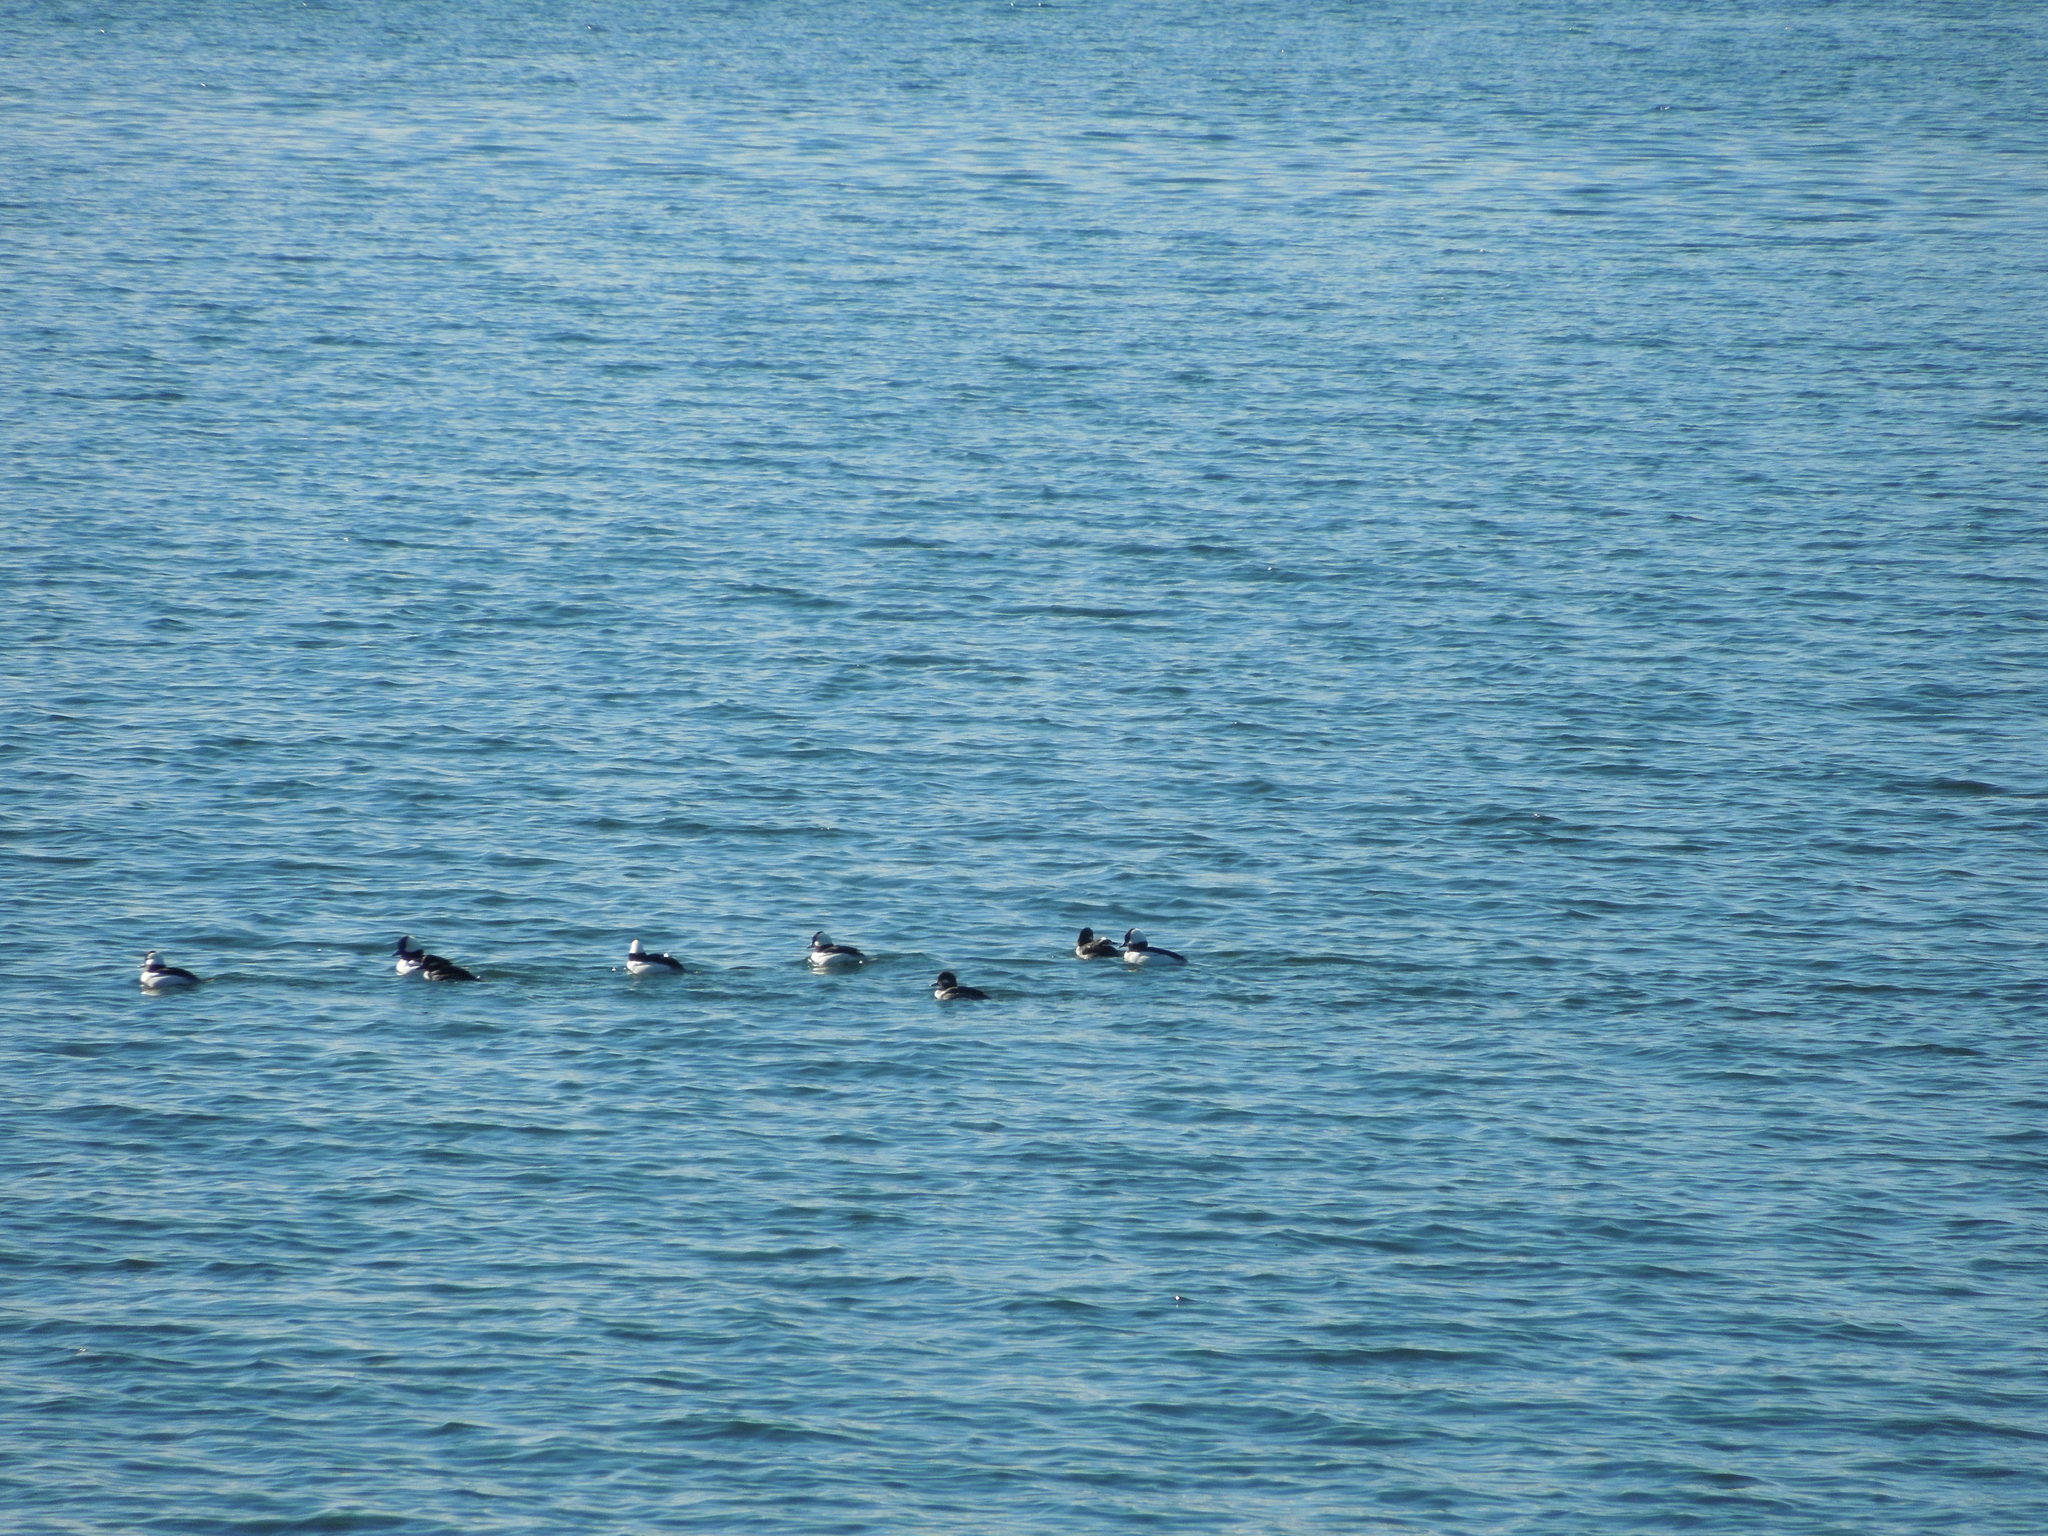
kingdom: Animalia
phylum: Chordata
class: Aves
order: Anseriformes
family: Anatidae
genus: Bucephala
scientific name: Bucephala albeola
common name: Bufflehead
